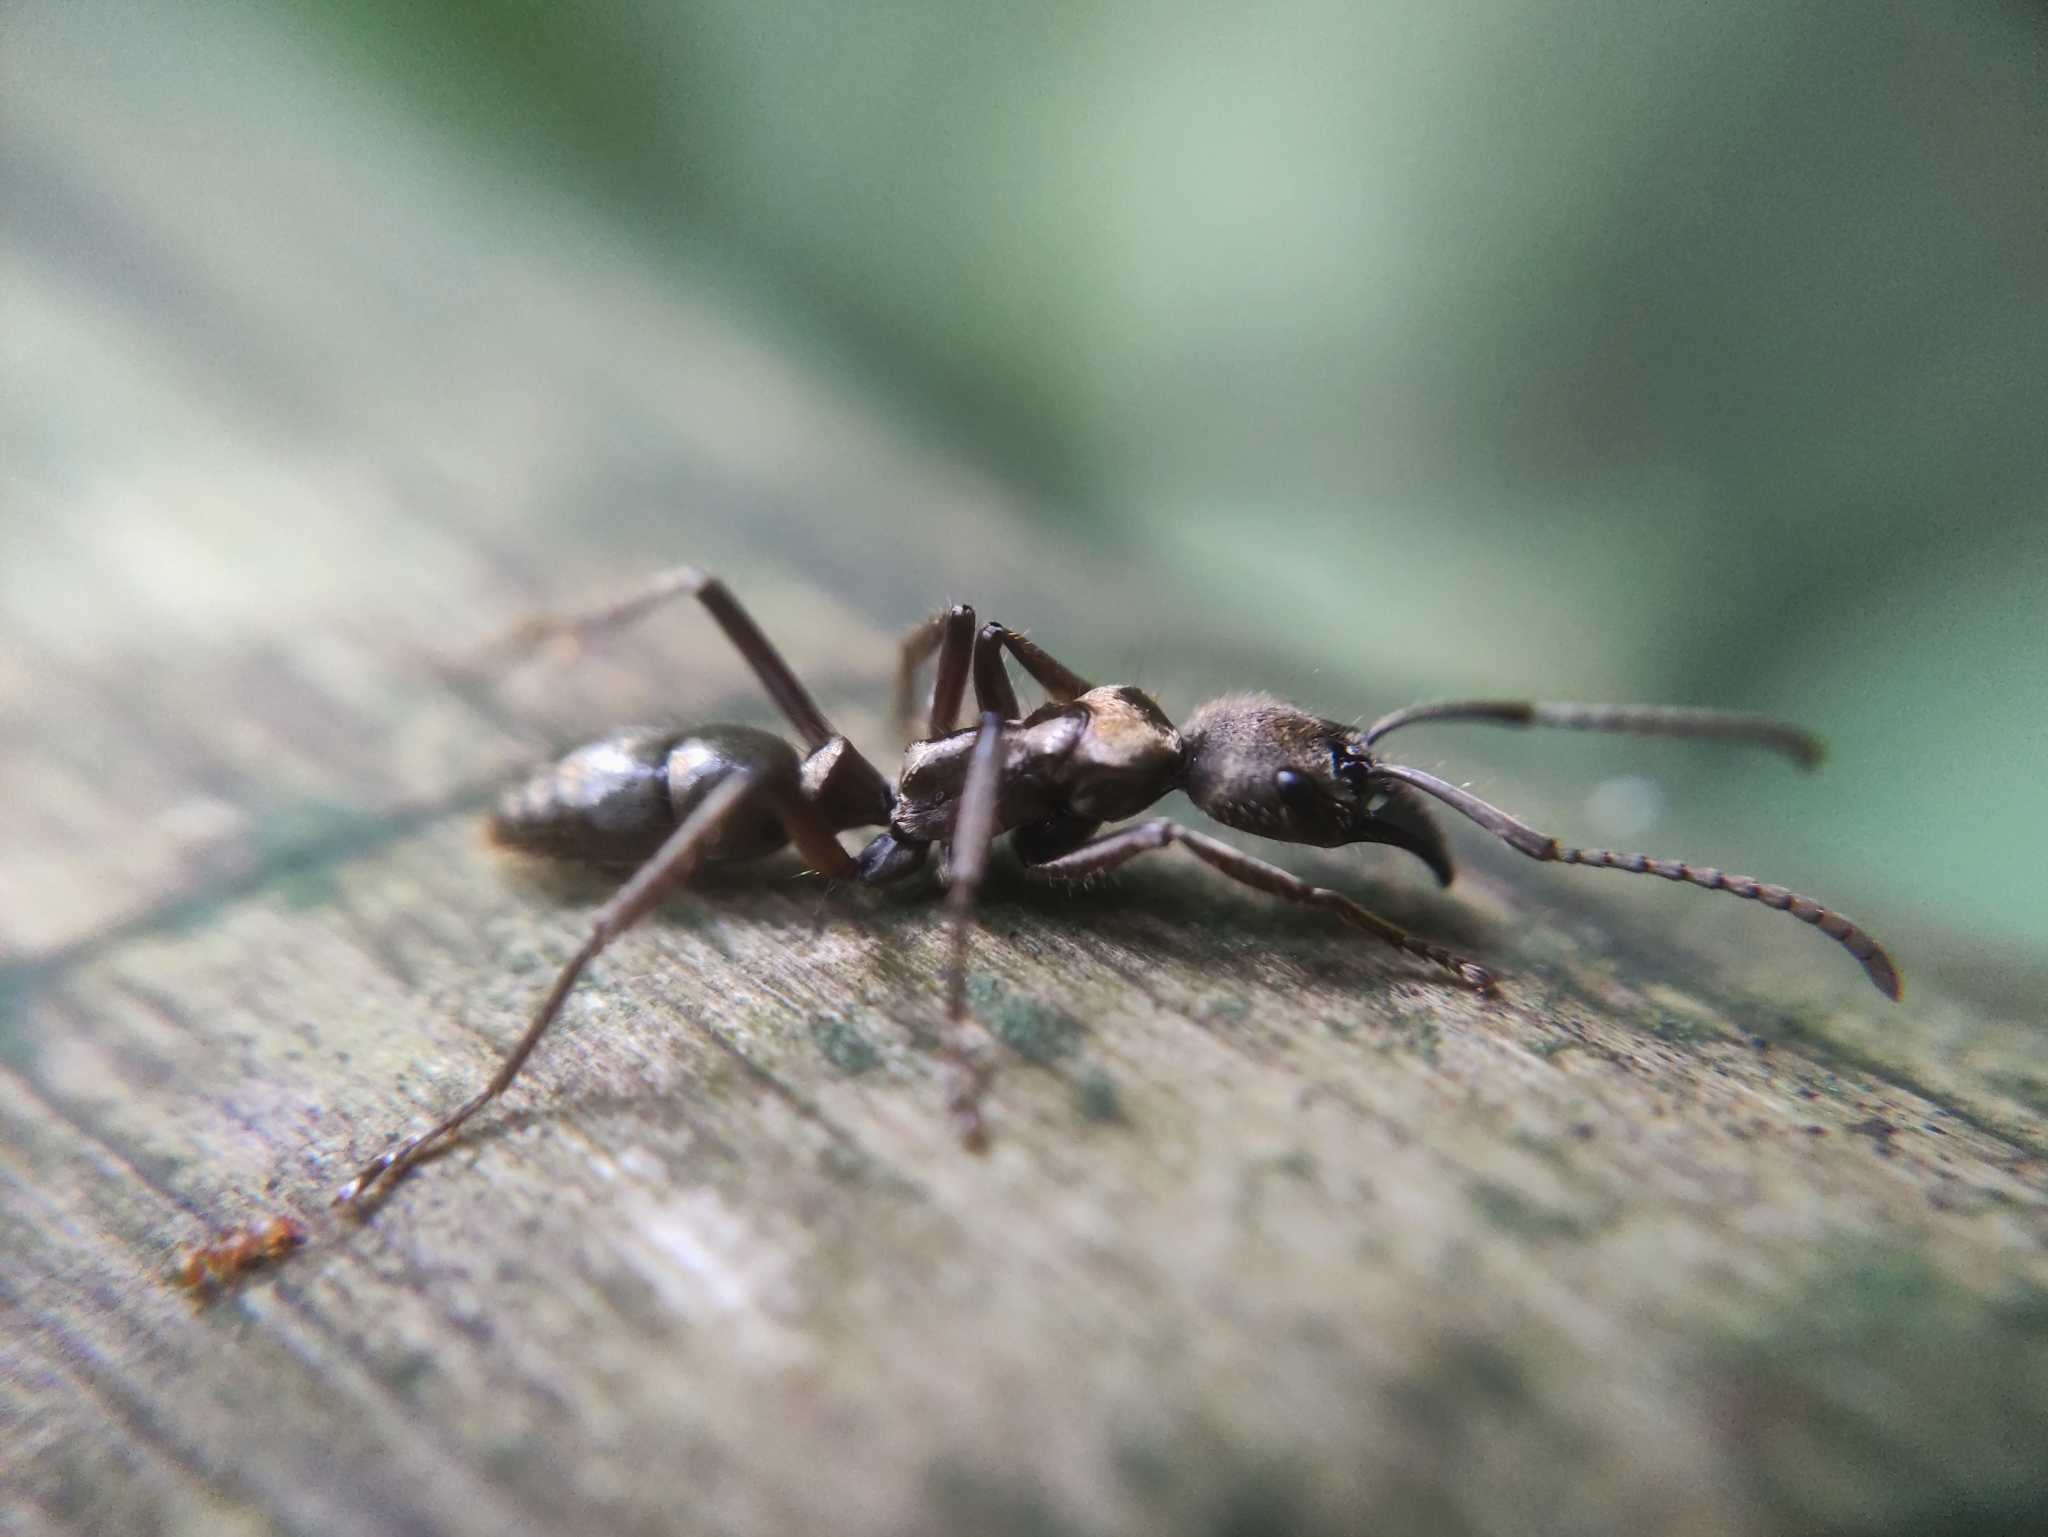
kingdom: Animalia
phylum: Arthropoda
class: Insecta
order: Hymenoptera
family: Formicidae
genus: Neoponera
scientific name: Neoponera
